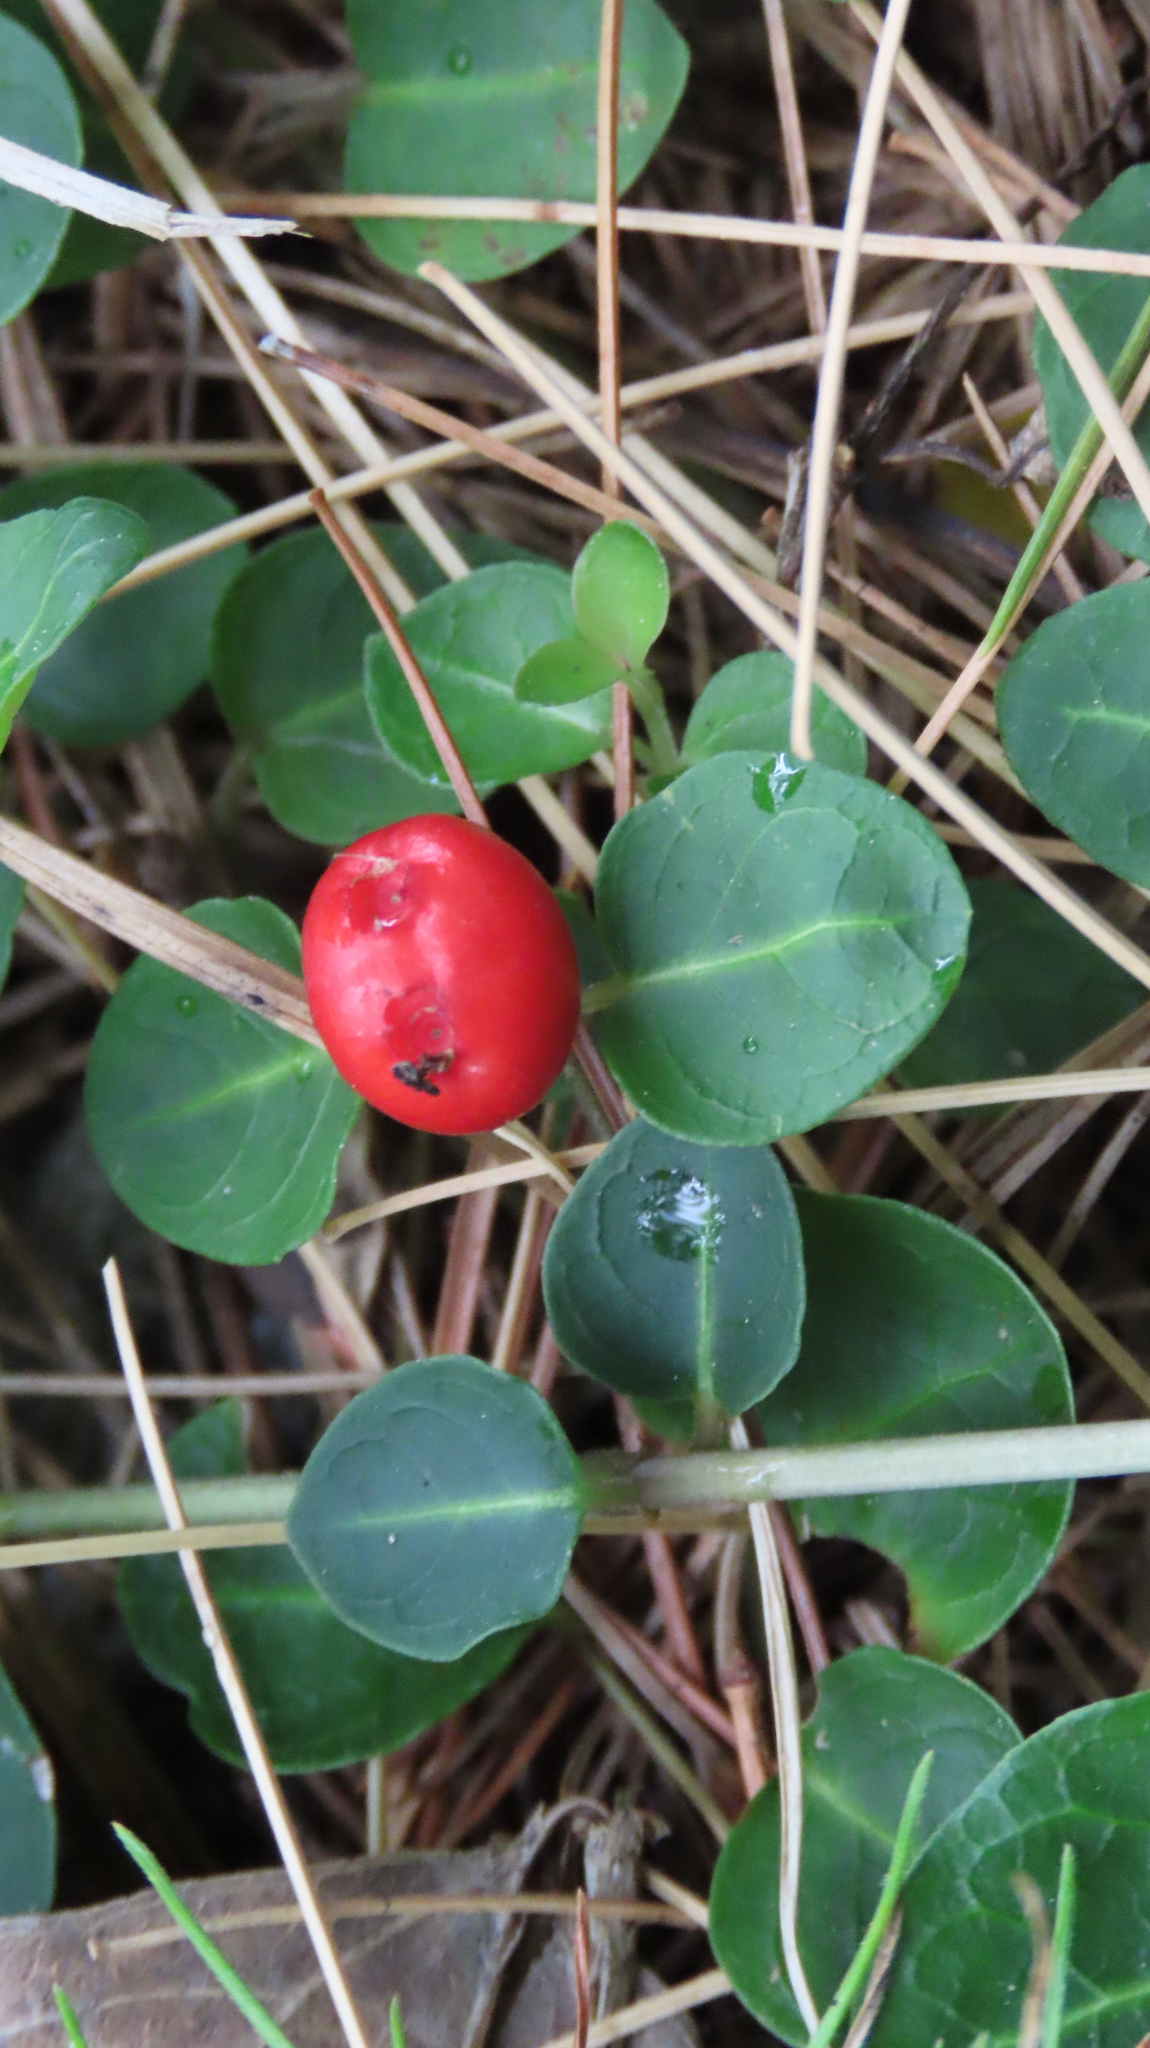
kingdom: Plantae
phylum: Tracheophyta
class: Magnoliopsida
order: Gentianales
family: Rubiaceae
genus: Mitchella
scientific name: Mitchella repens
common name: Partridge-berry
